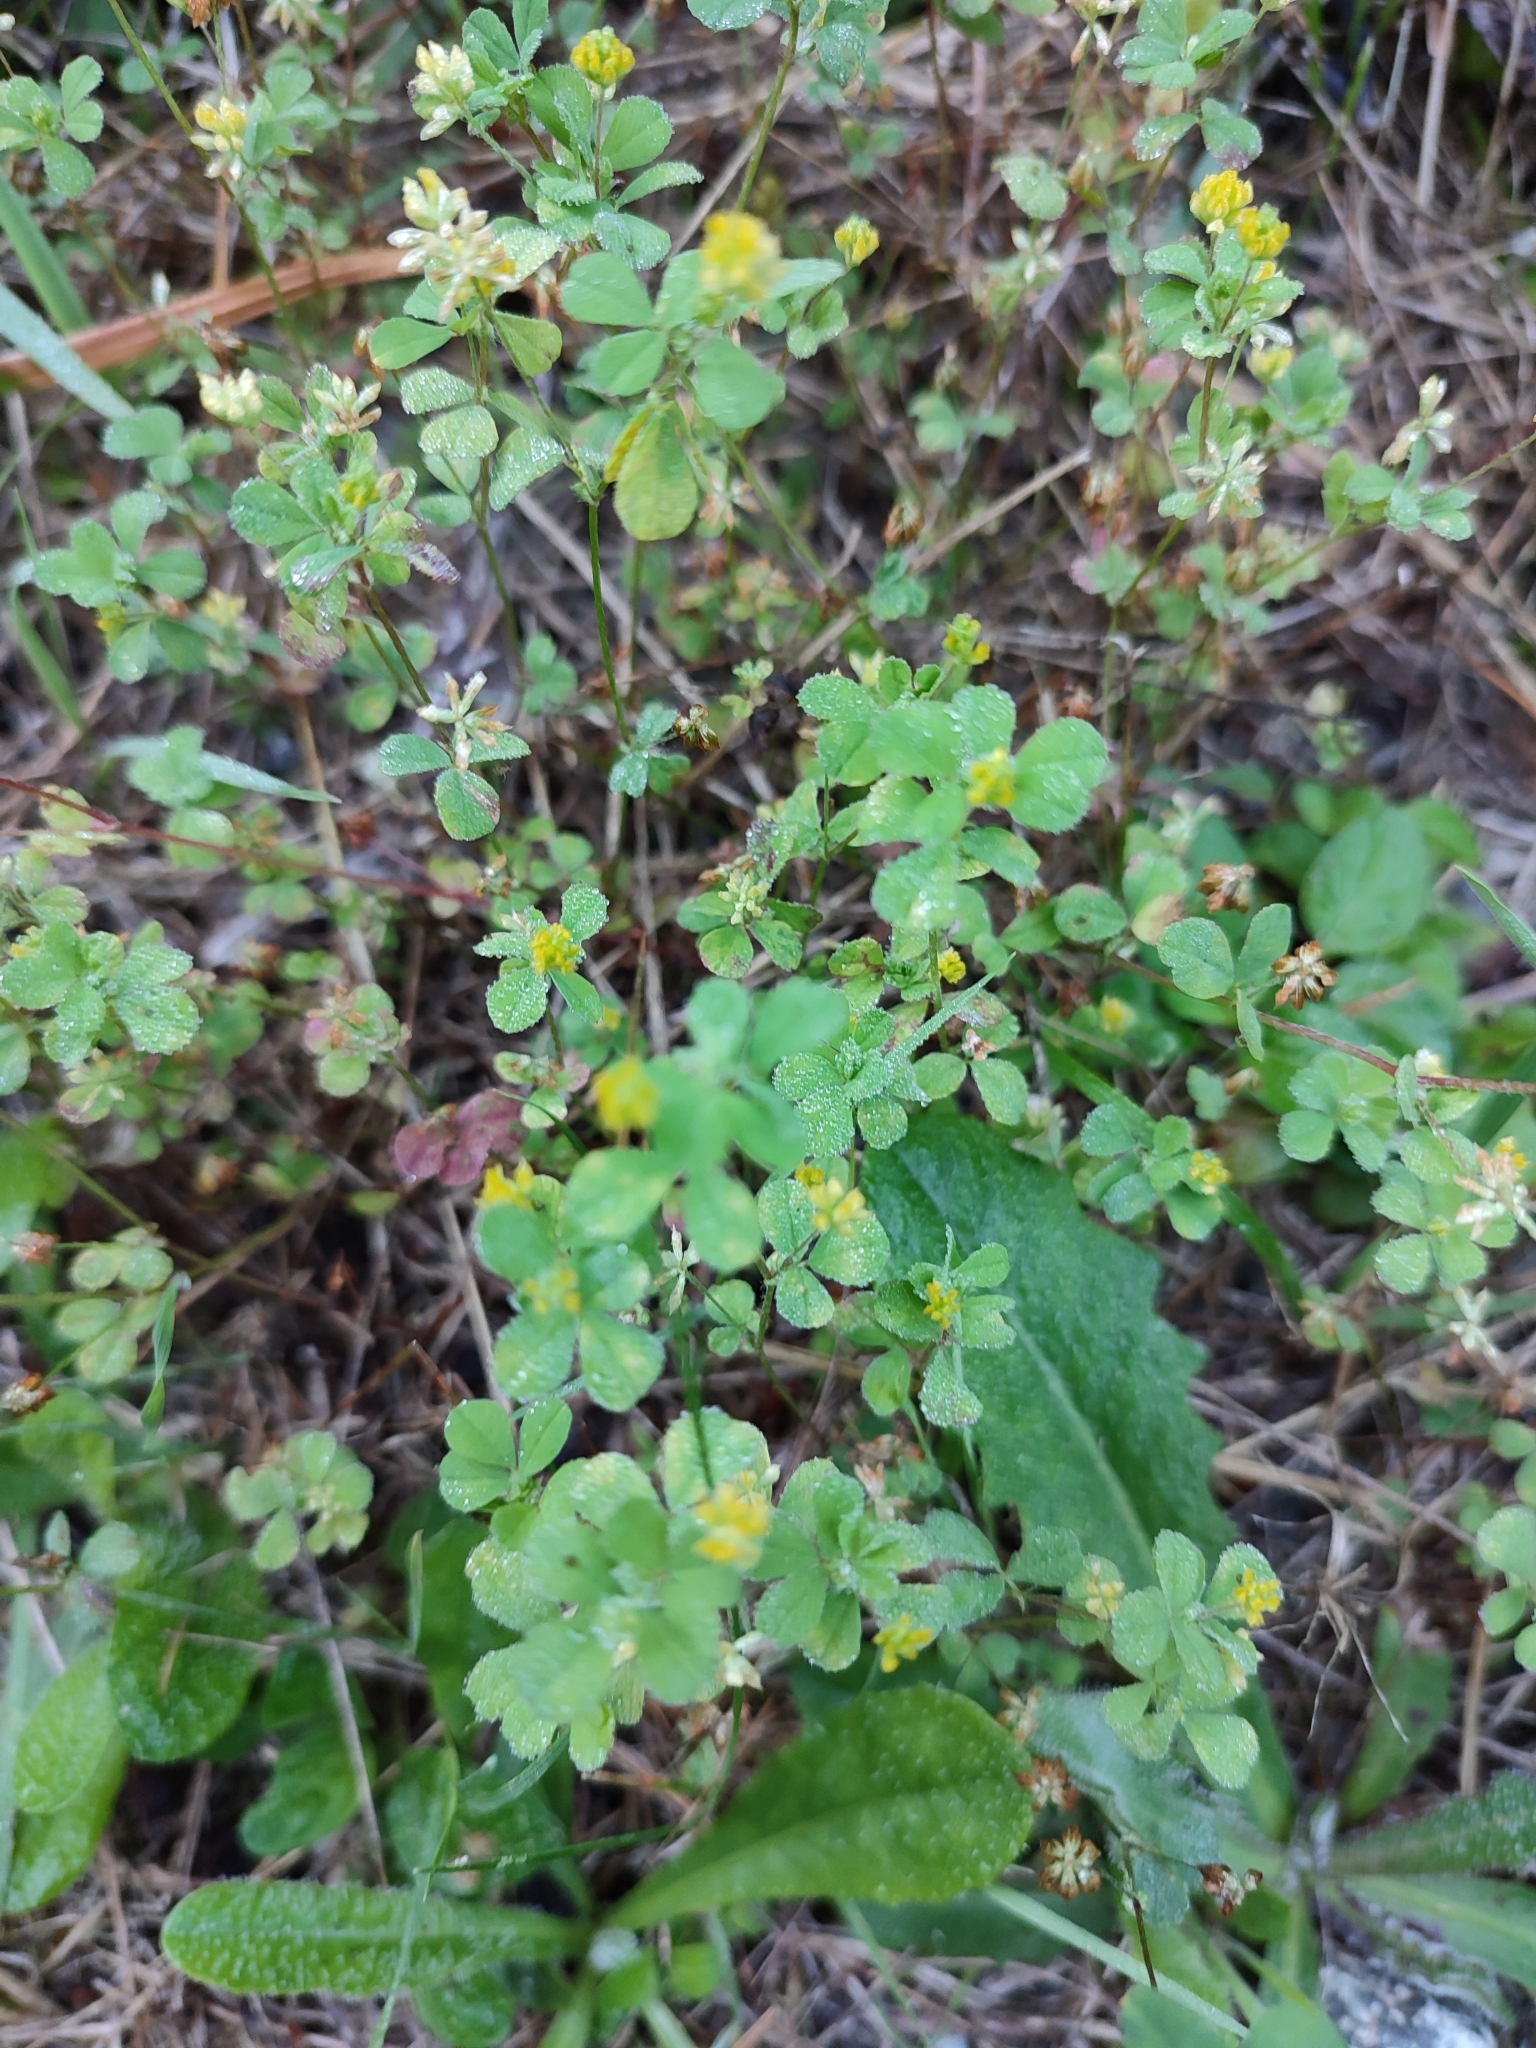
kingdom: Plantae
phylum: Tracheophyta
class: Magnoliopsida
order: Fabales
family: Fabaceae
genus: Trifolium
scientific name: Trifolium dubium
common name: Suckling clover
